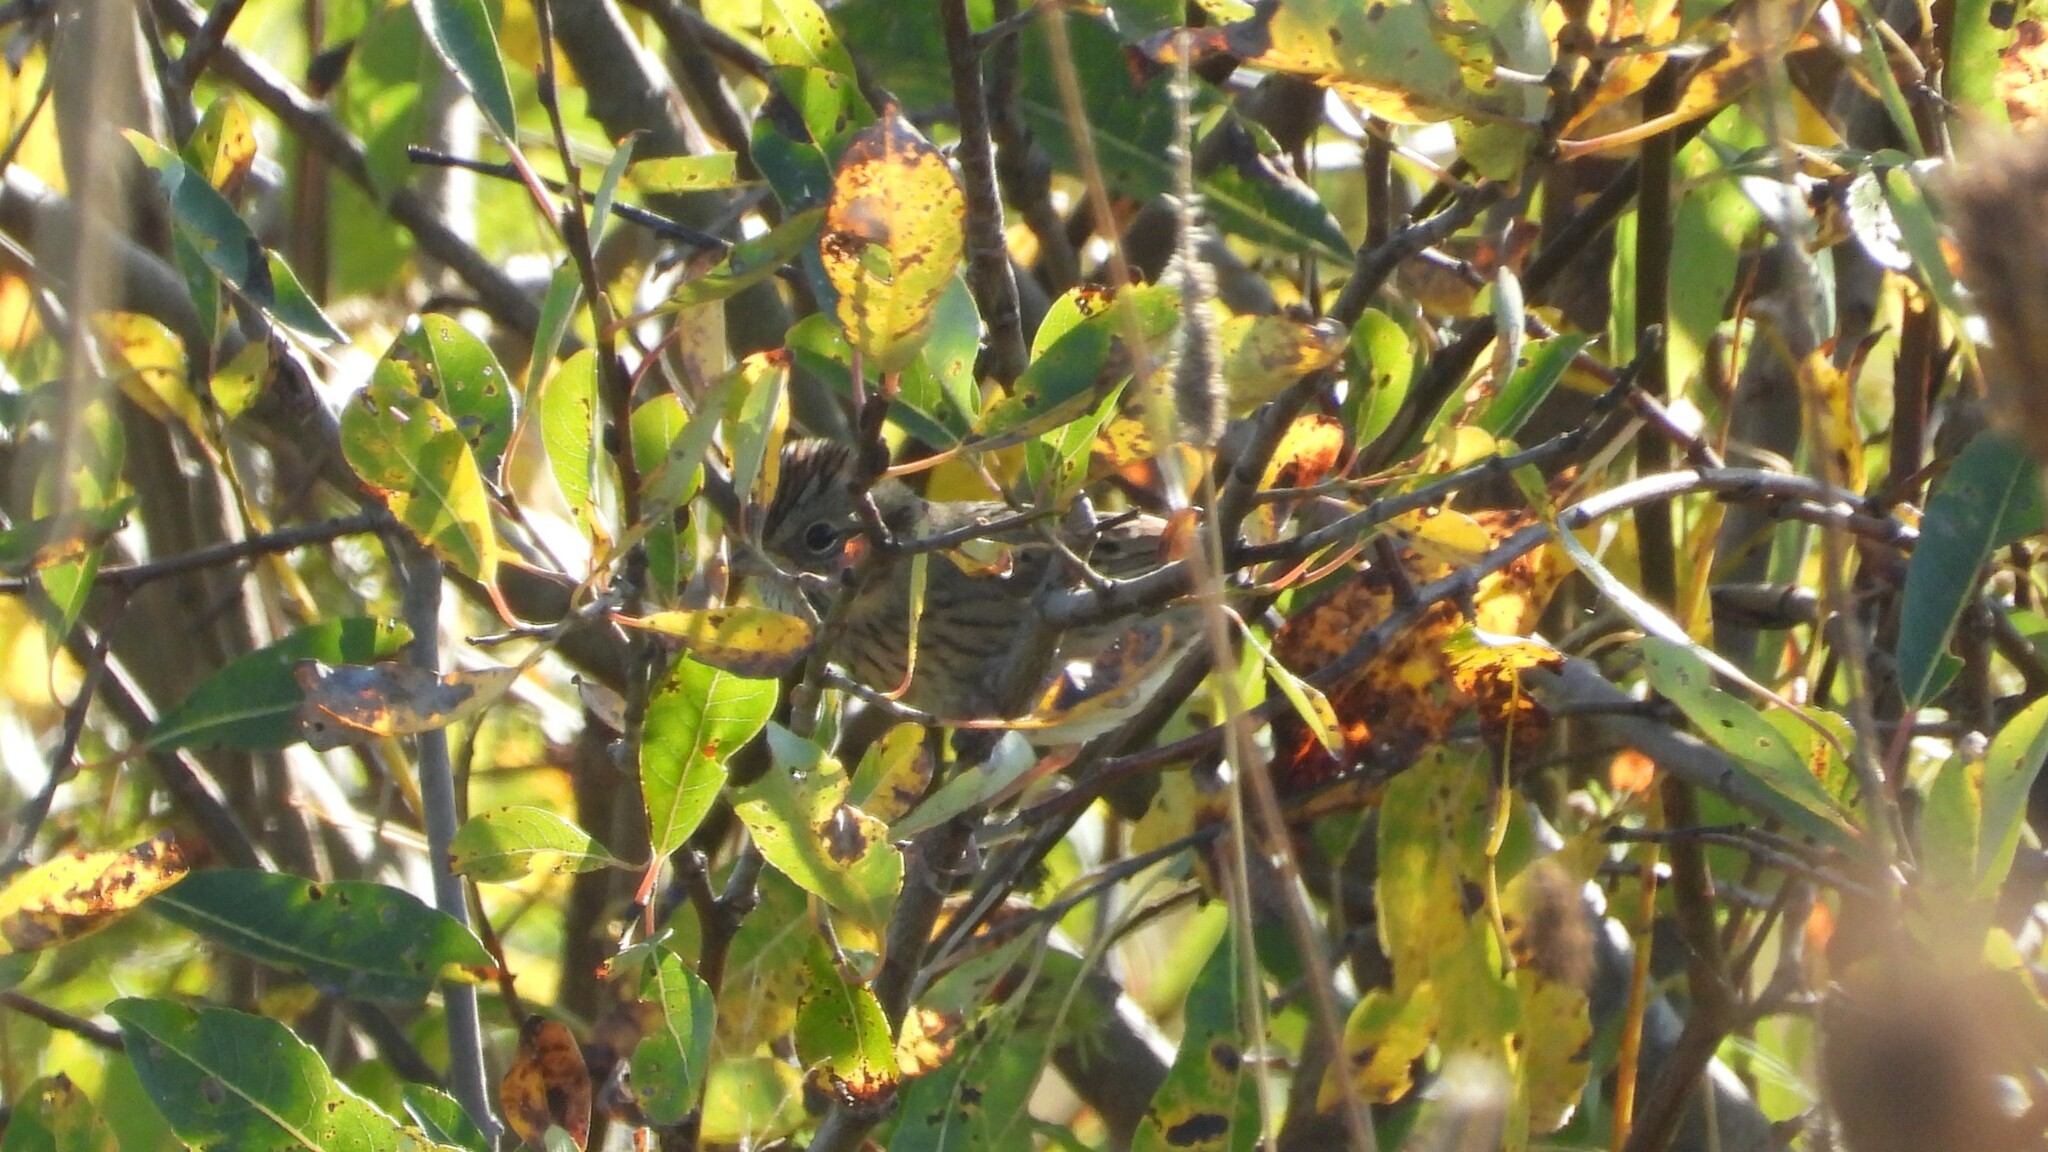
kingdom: Animalia
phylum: Chordata
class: Aves
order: Passeriformes
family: Passerellidae
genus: Melospiza
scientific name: Melospiza lincolnii
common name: Lincoln's sparrow
